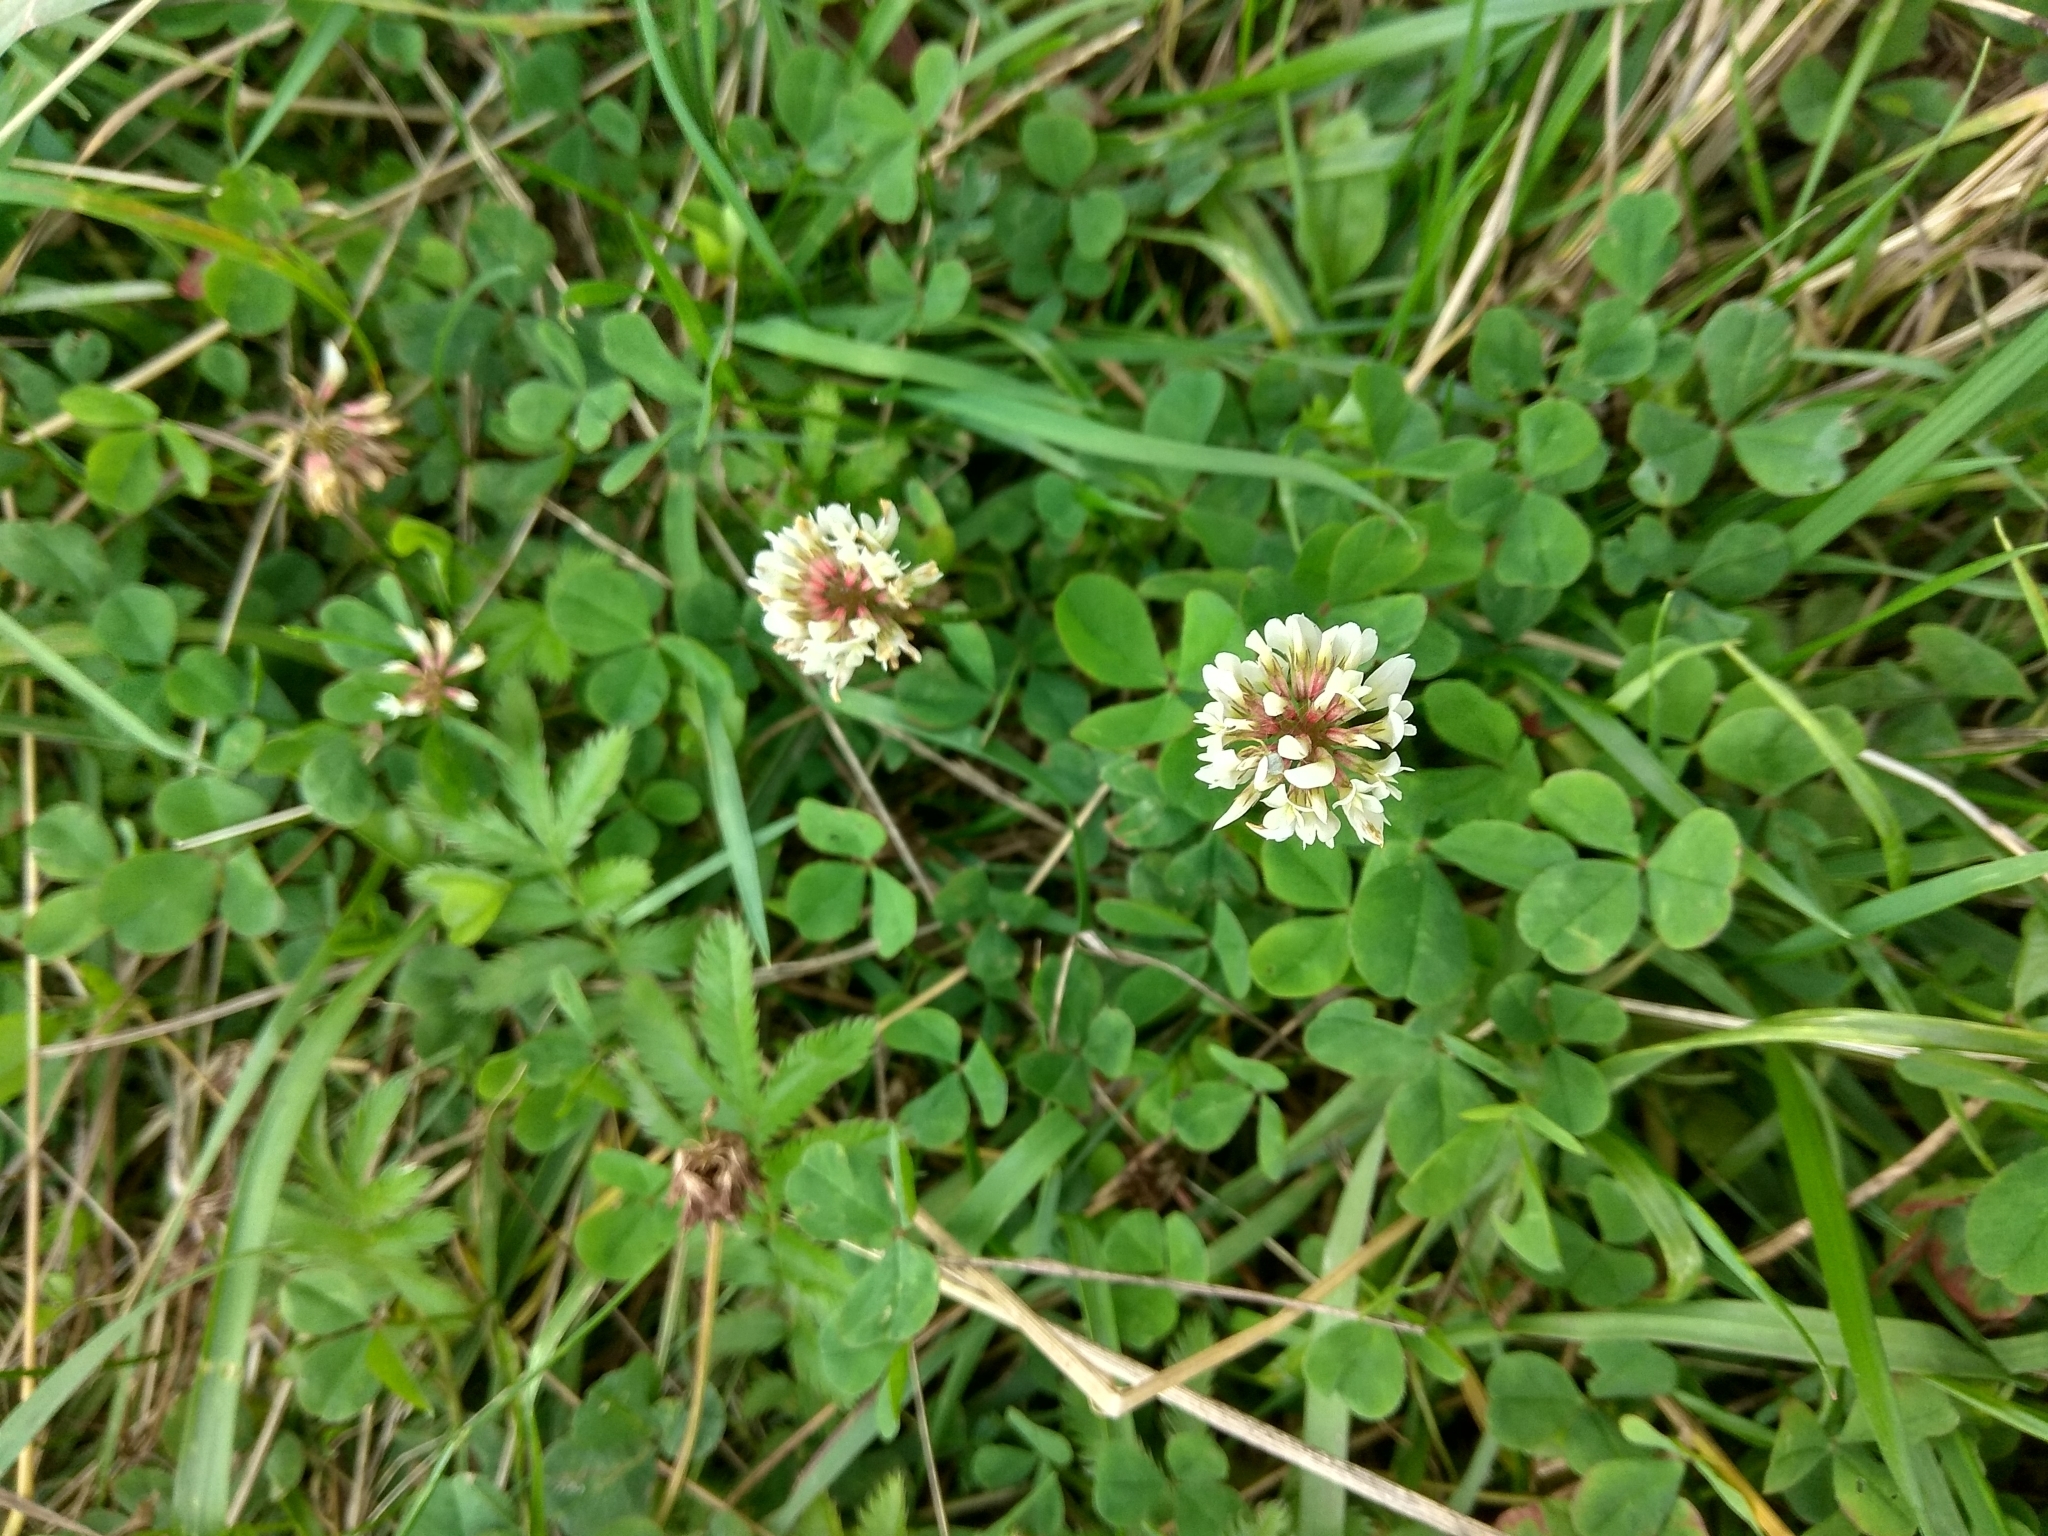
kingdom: Plantae
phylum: Tracheophyta
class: Magnoliopsida
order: Fabales
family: Fabaceae
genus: Trifolium
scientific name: Trifolium repens
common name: White clover
